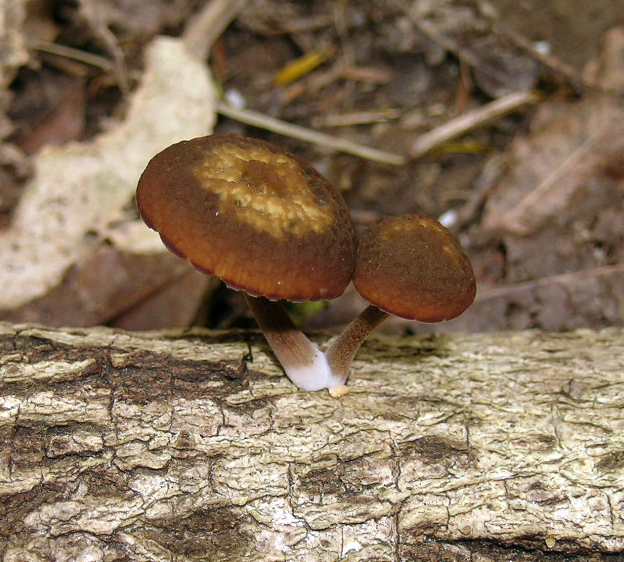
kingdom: Fungi
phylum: Basidiomycota
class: Agaricomycetes
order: Agaricales
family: Crepidotaceae
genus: Simocybe
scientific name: Simocybe phlebophora
